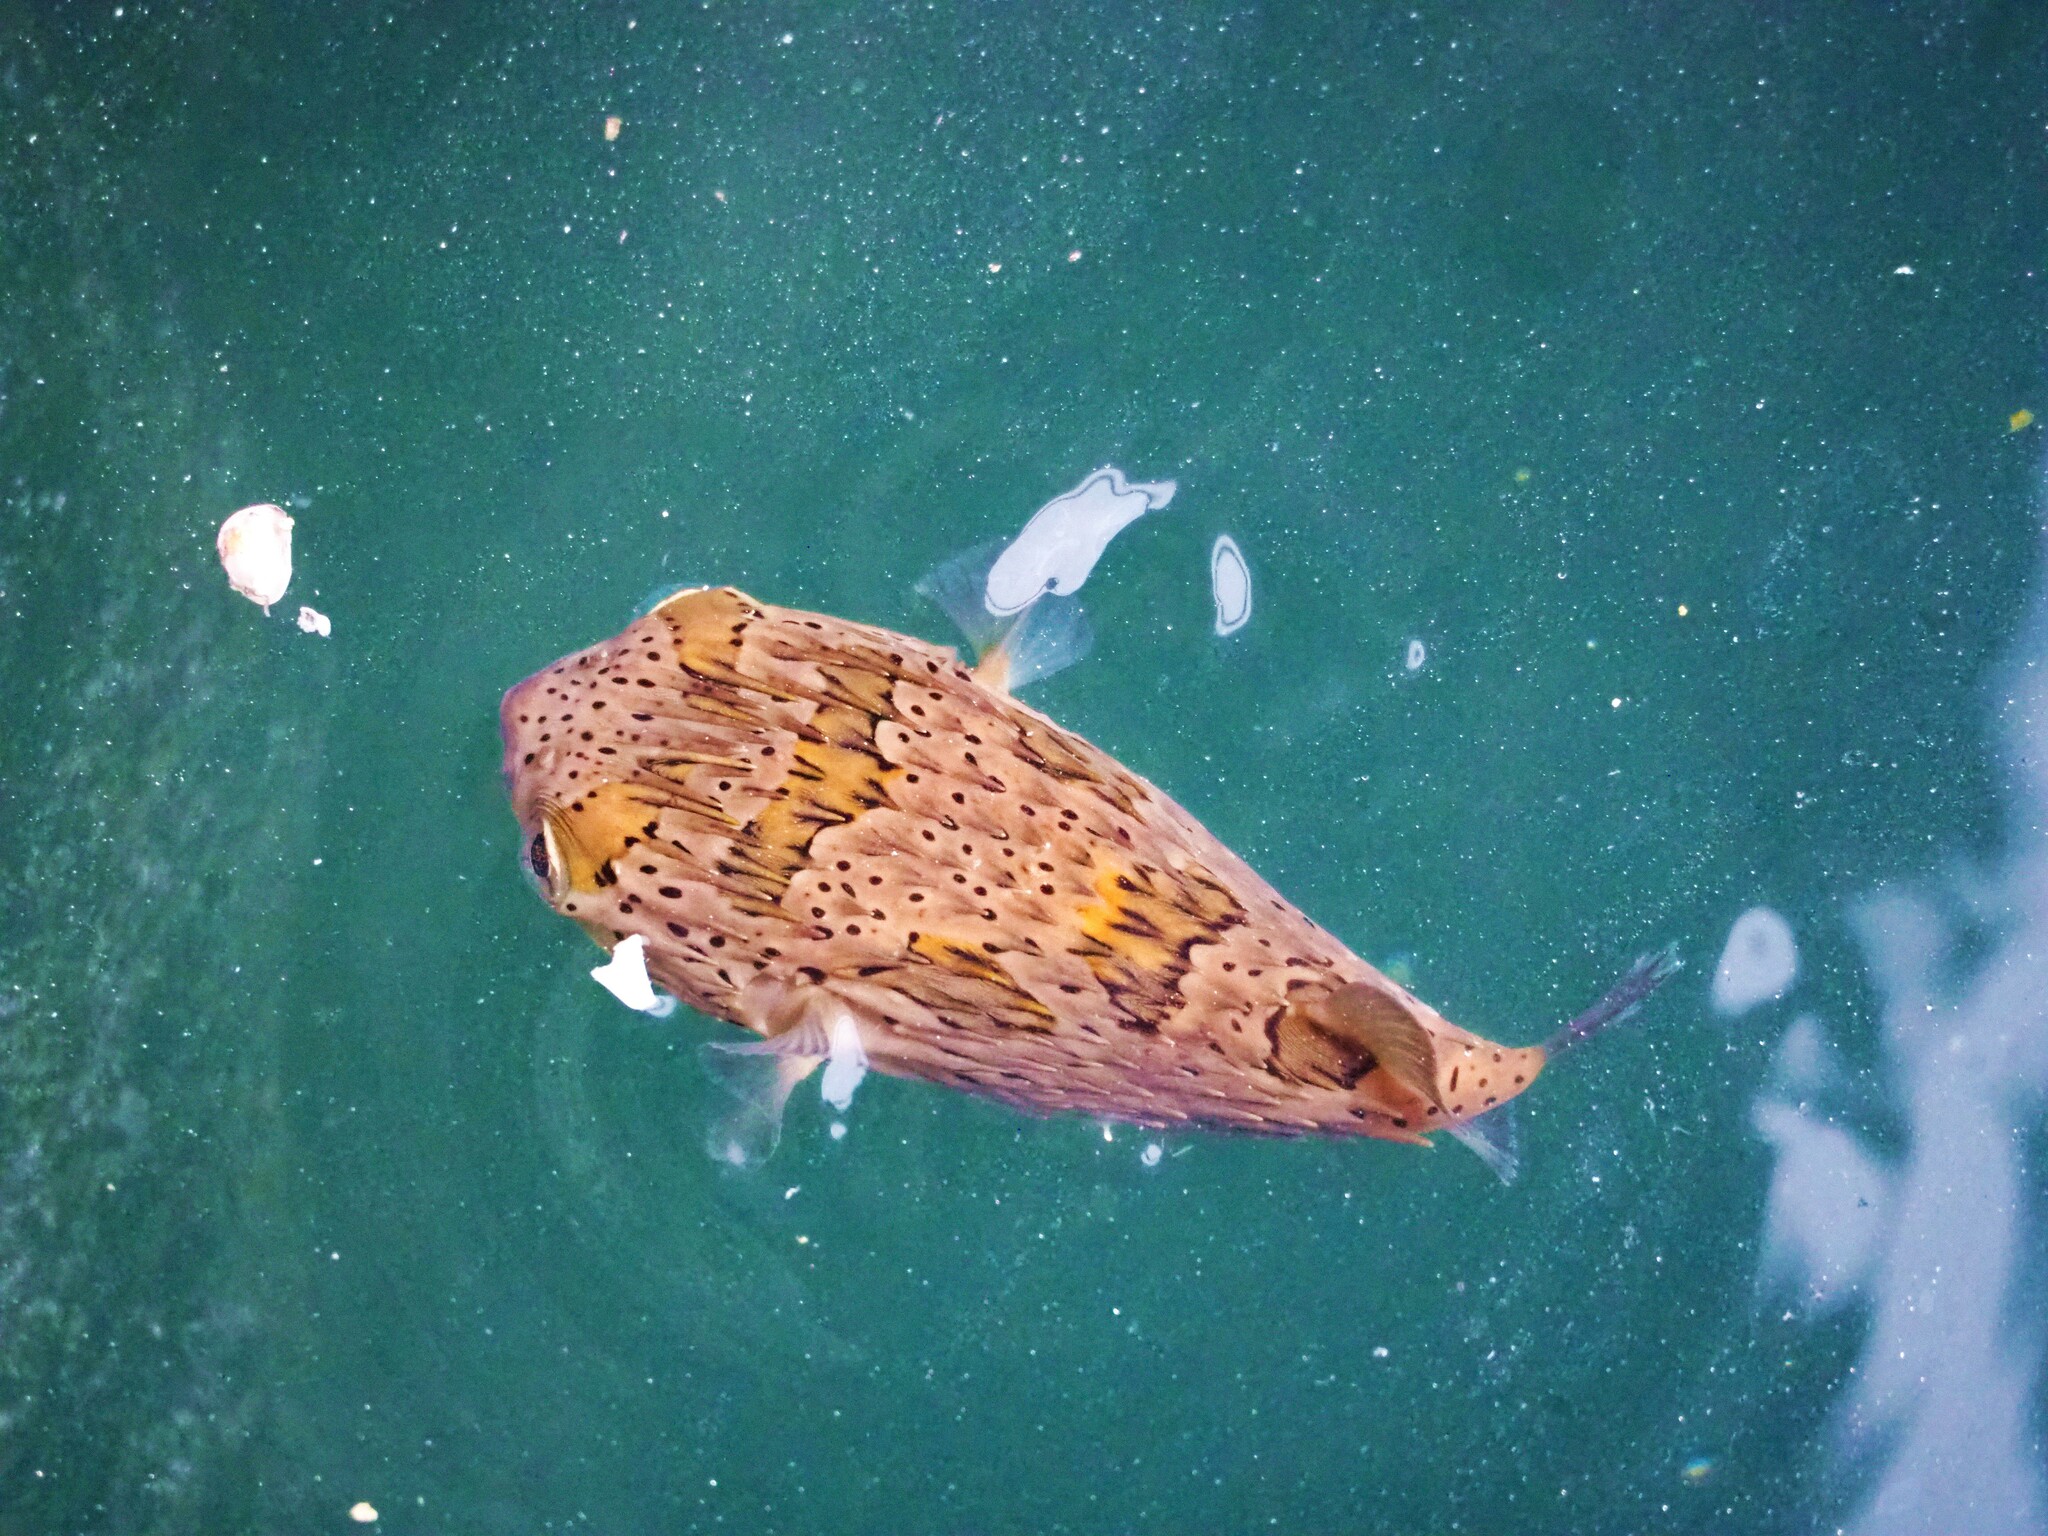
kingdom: Animalia
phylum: Chordata
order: Tetraodontiformes
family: Diodontidae
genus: Diodon
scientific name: Diodon holocanthus
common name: Balloonfish
